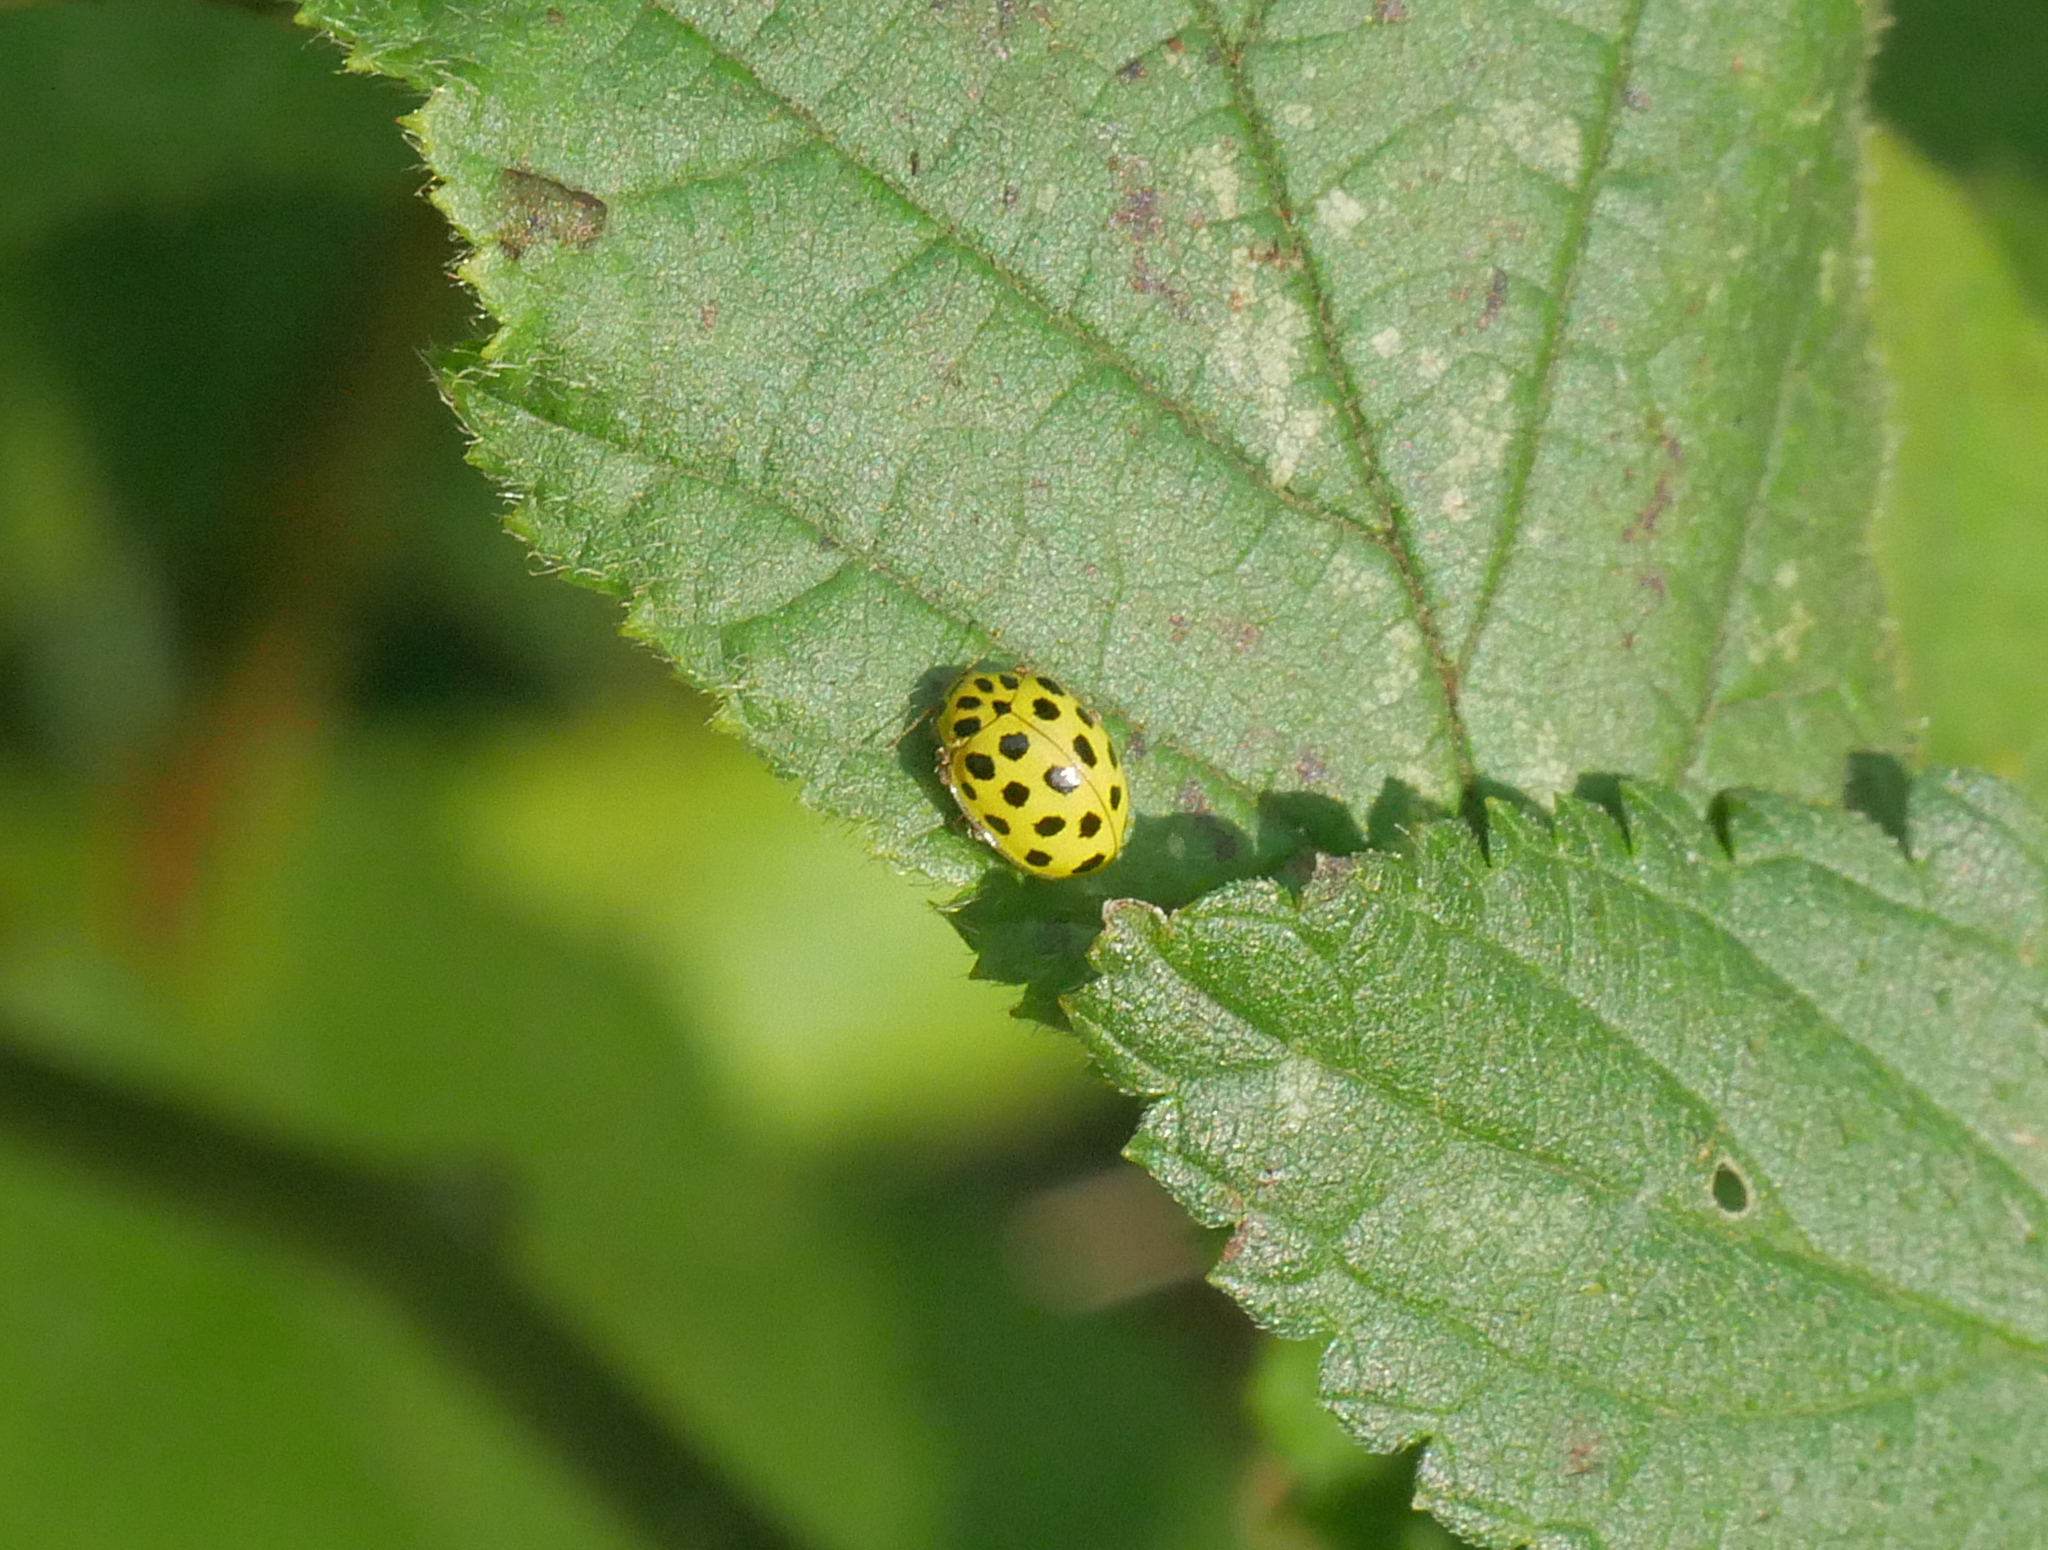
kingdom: Animalia
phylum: Arthropoda
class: Insecta
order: Coleoptera
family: Coccinellidae
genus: Psyllobora
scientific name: Psyllobora vigintiduopunctata
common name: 22-spot ladybird
